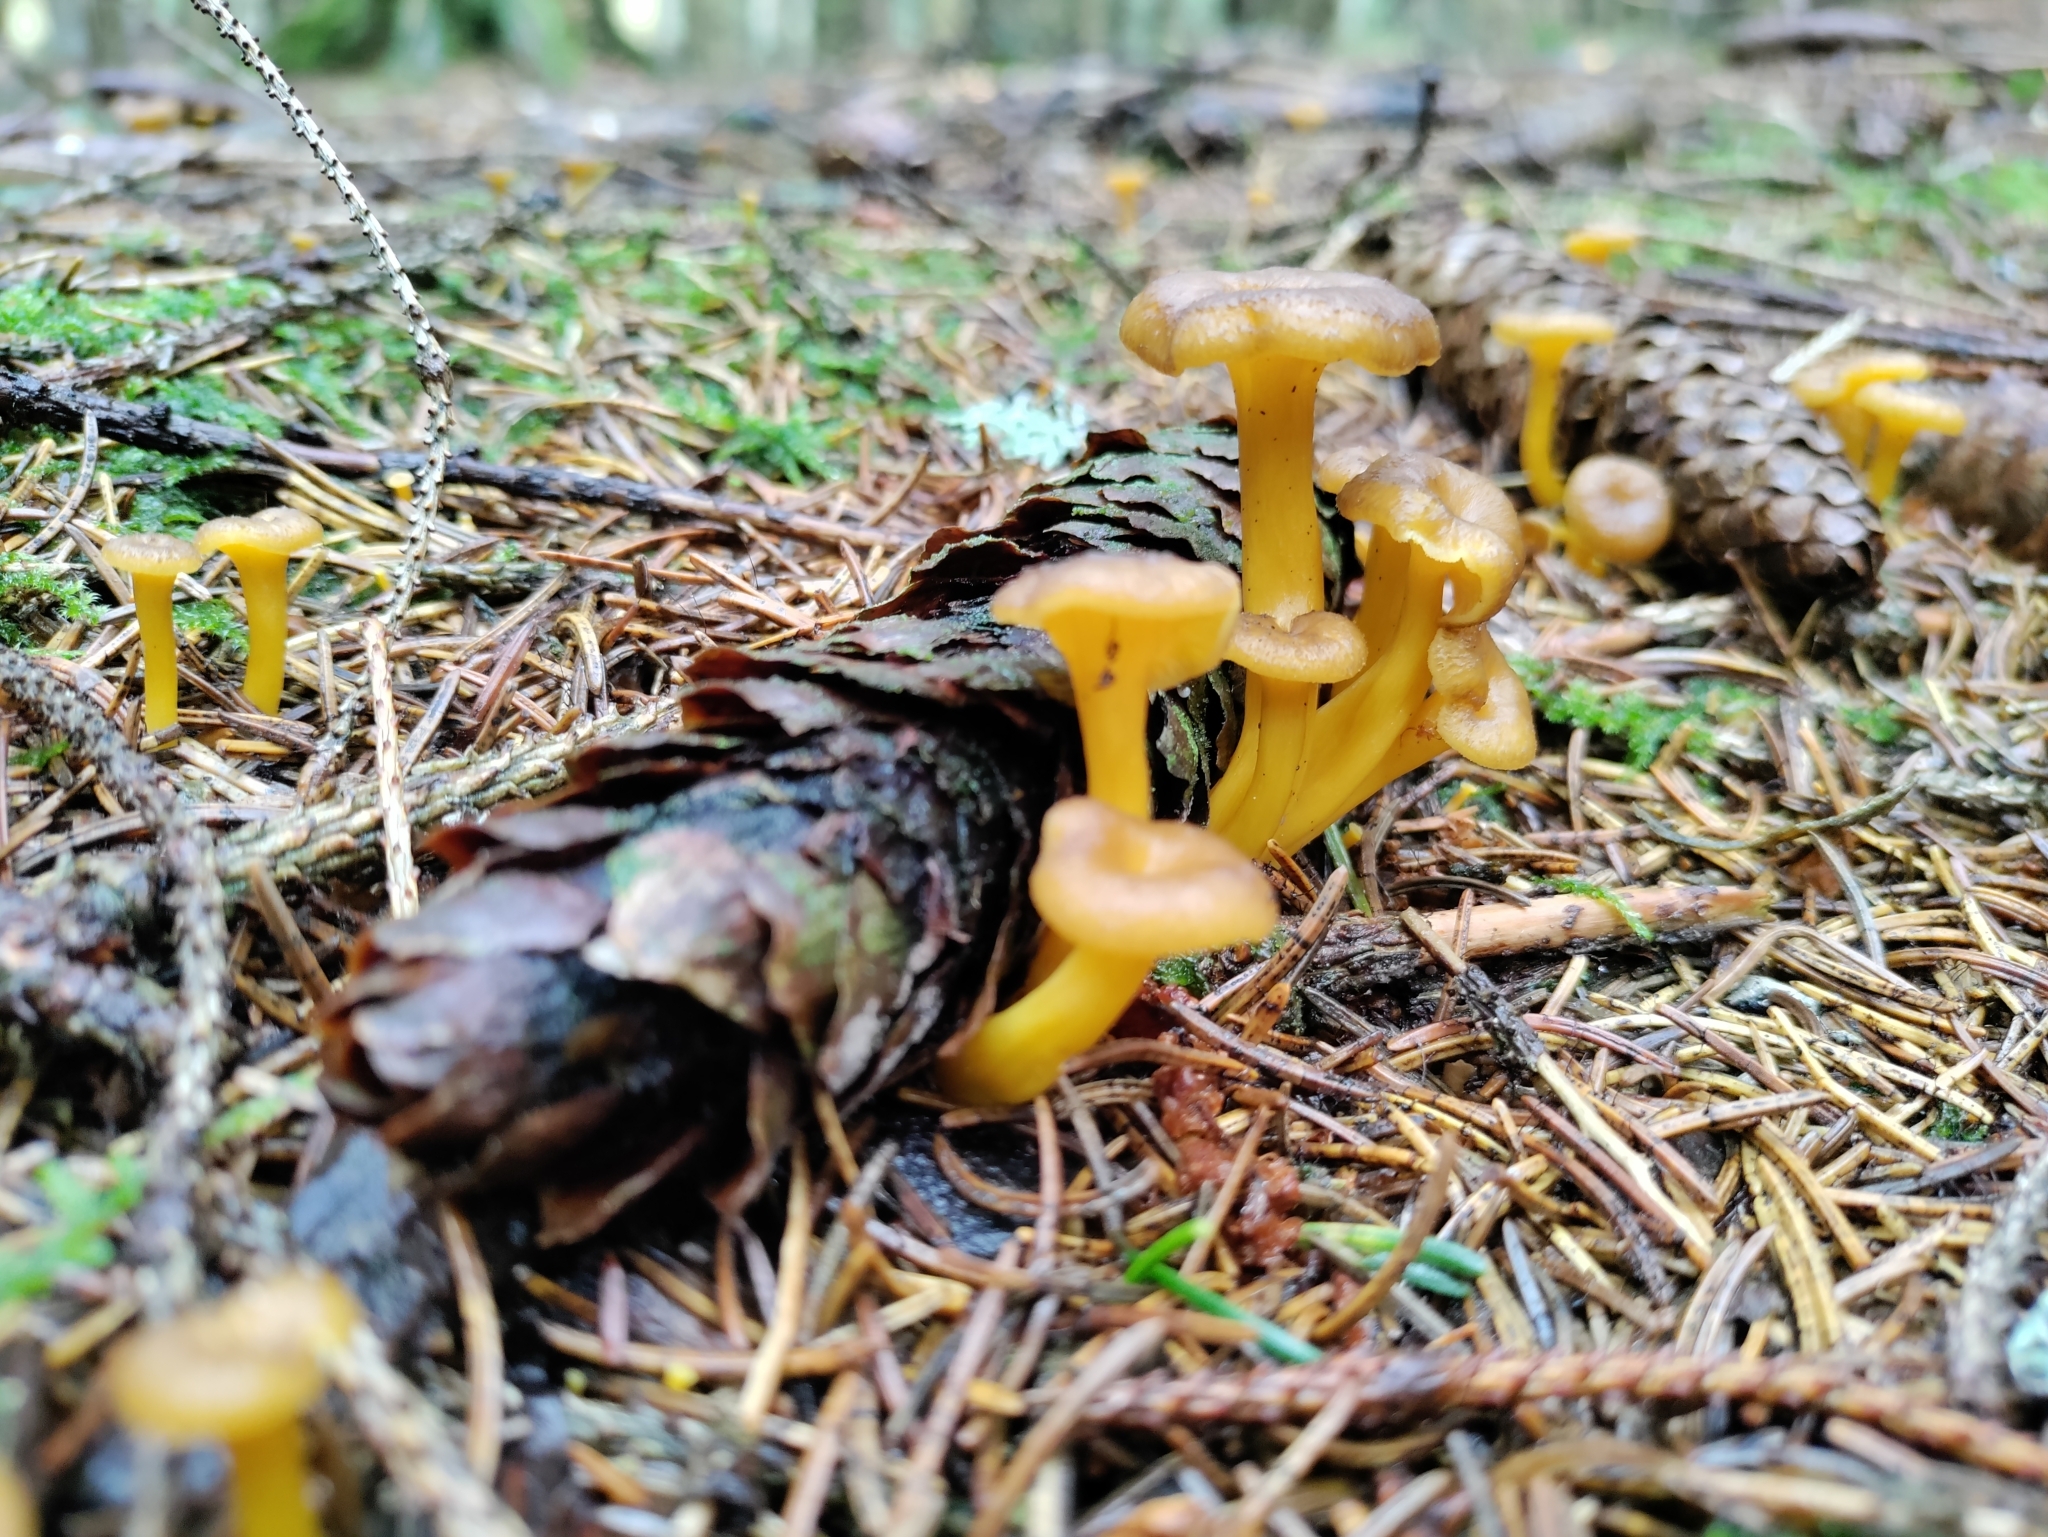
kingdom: Fungi
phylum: Basidiomycota
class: Agaricomycetes
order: Cantharellales
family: Hydnaceae
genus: Craterellus
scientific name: Craterellus tubaeformis
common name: Yellowfoot
